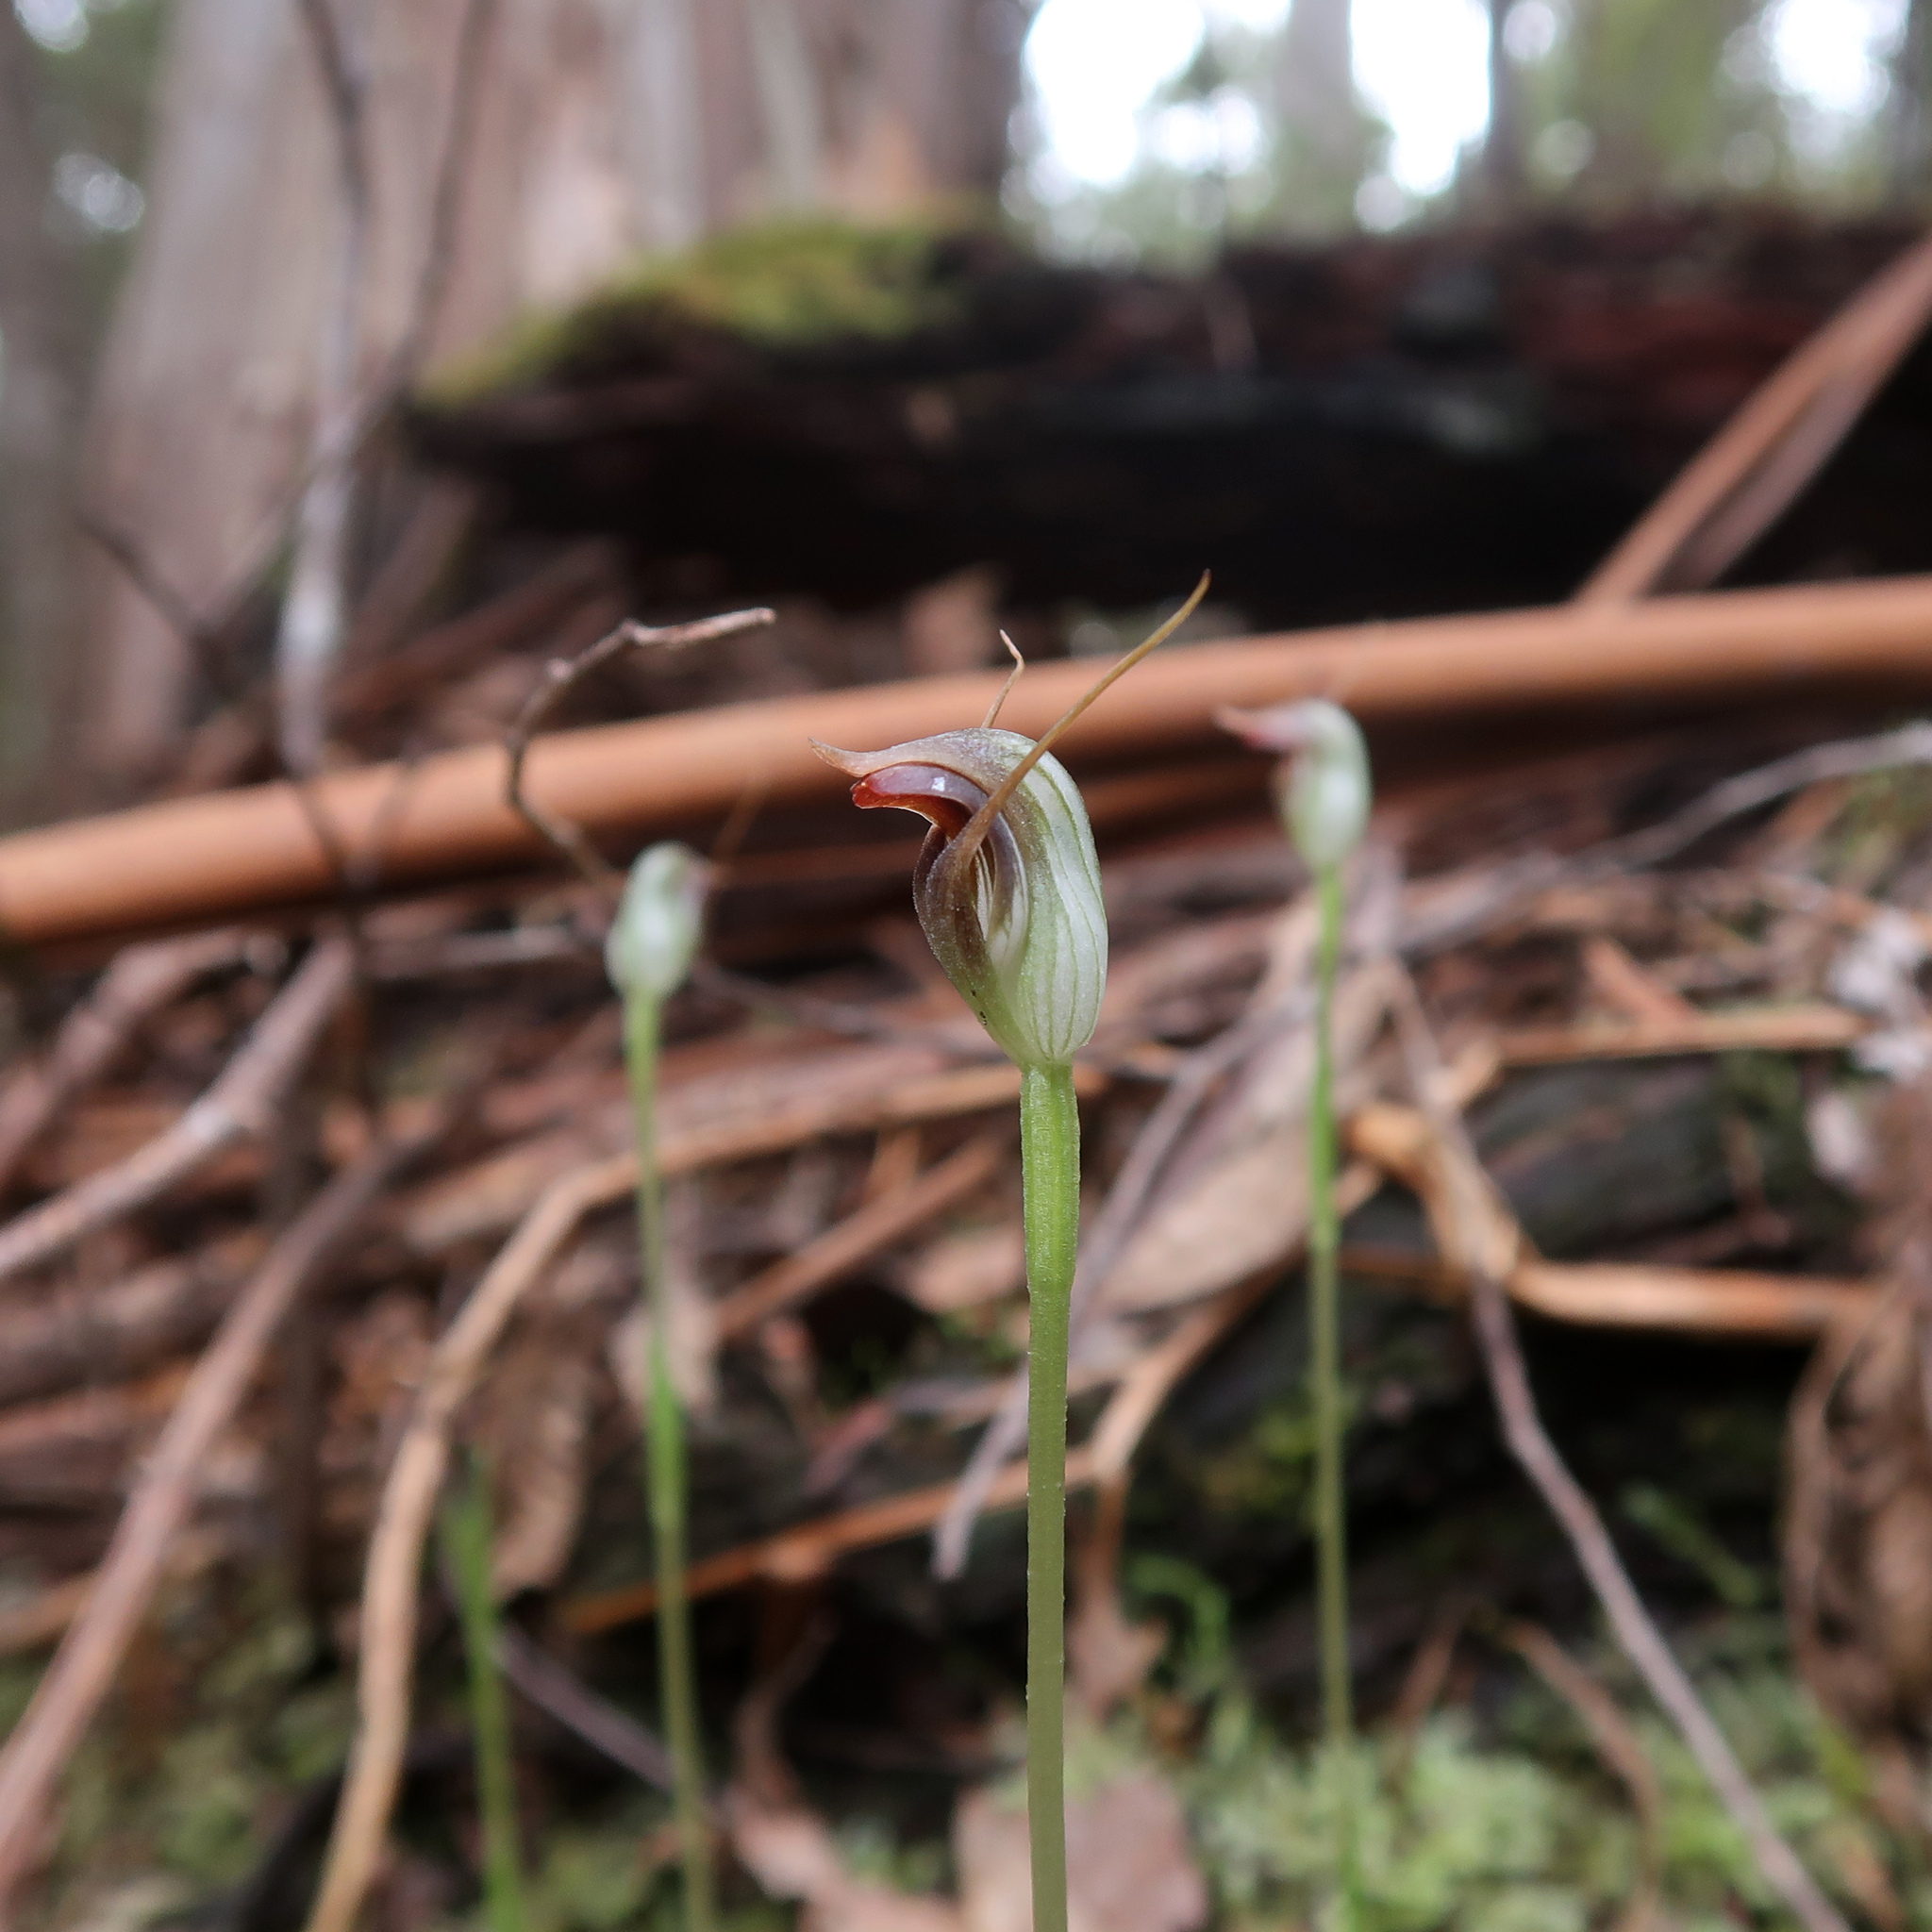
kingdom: Plantae
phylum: Tracheophyta
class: Liliopsida
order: Asparagales
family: Orchidaceae
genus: Pterostylis
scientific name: Pterostylis pedunculata
